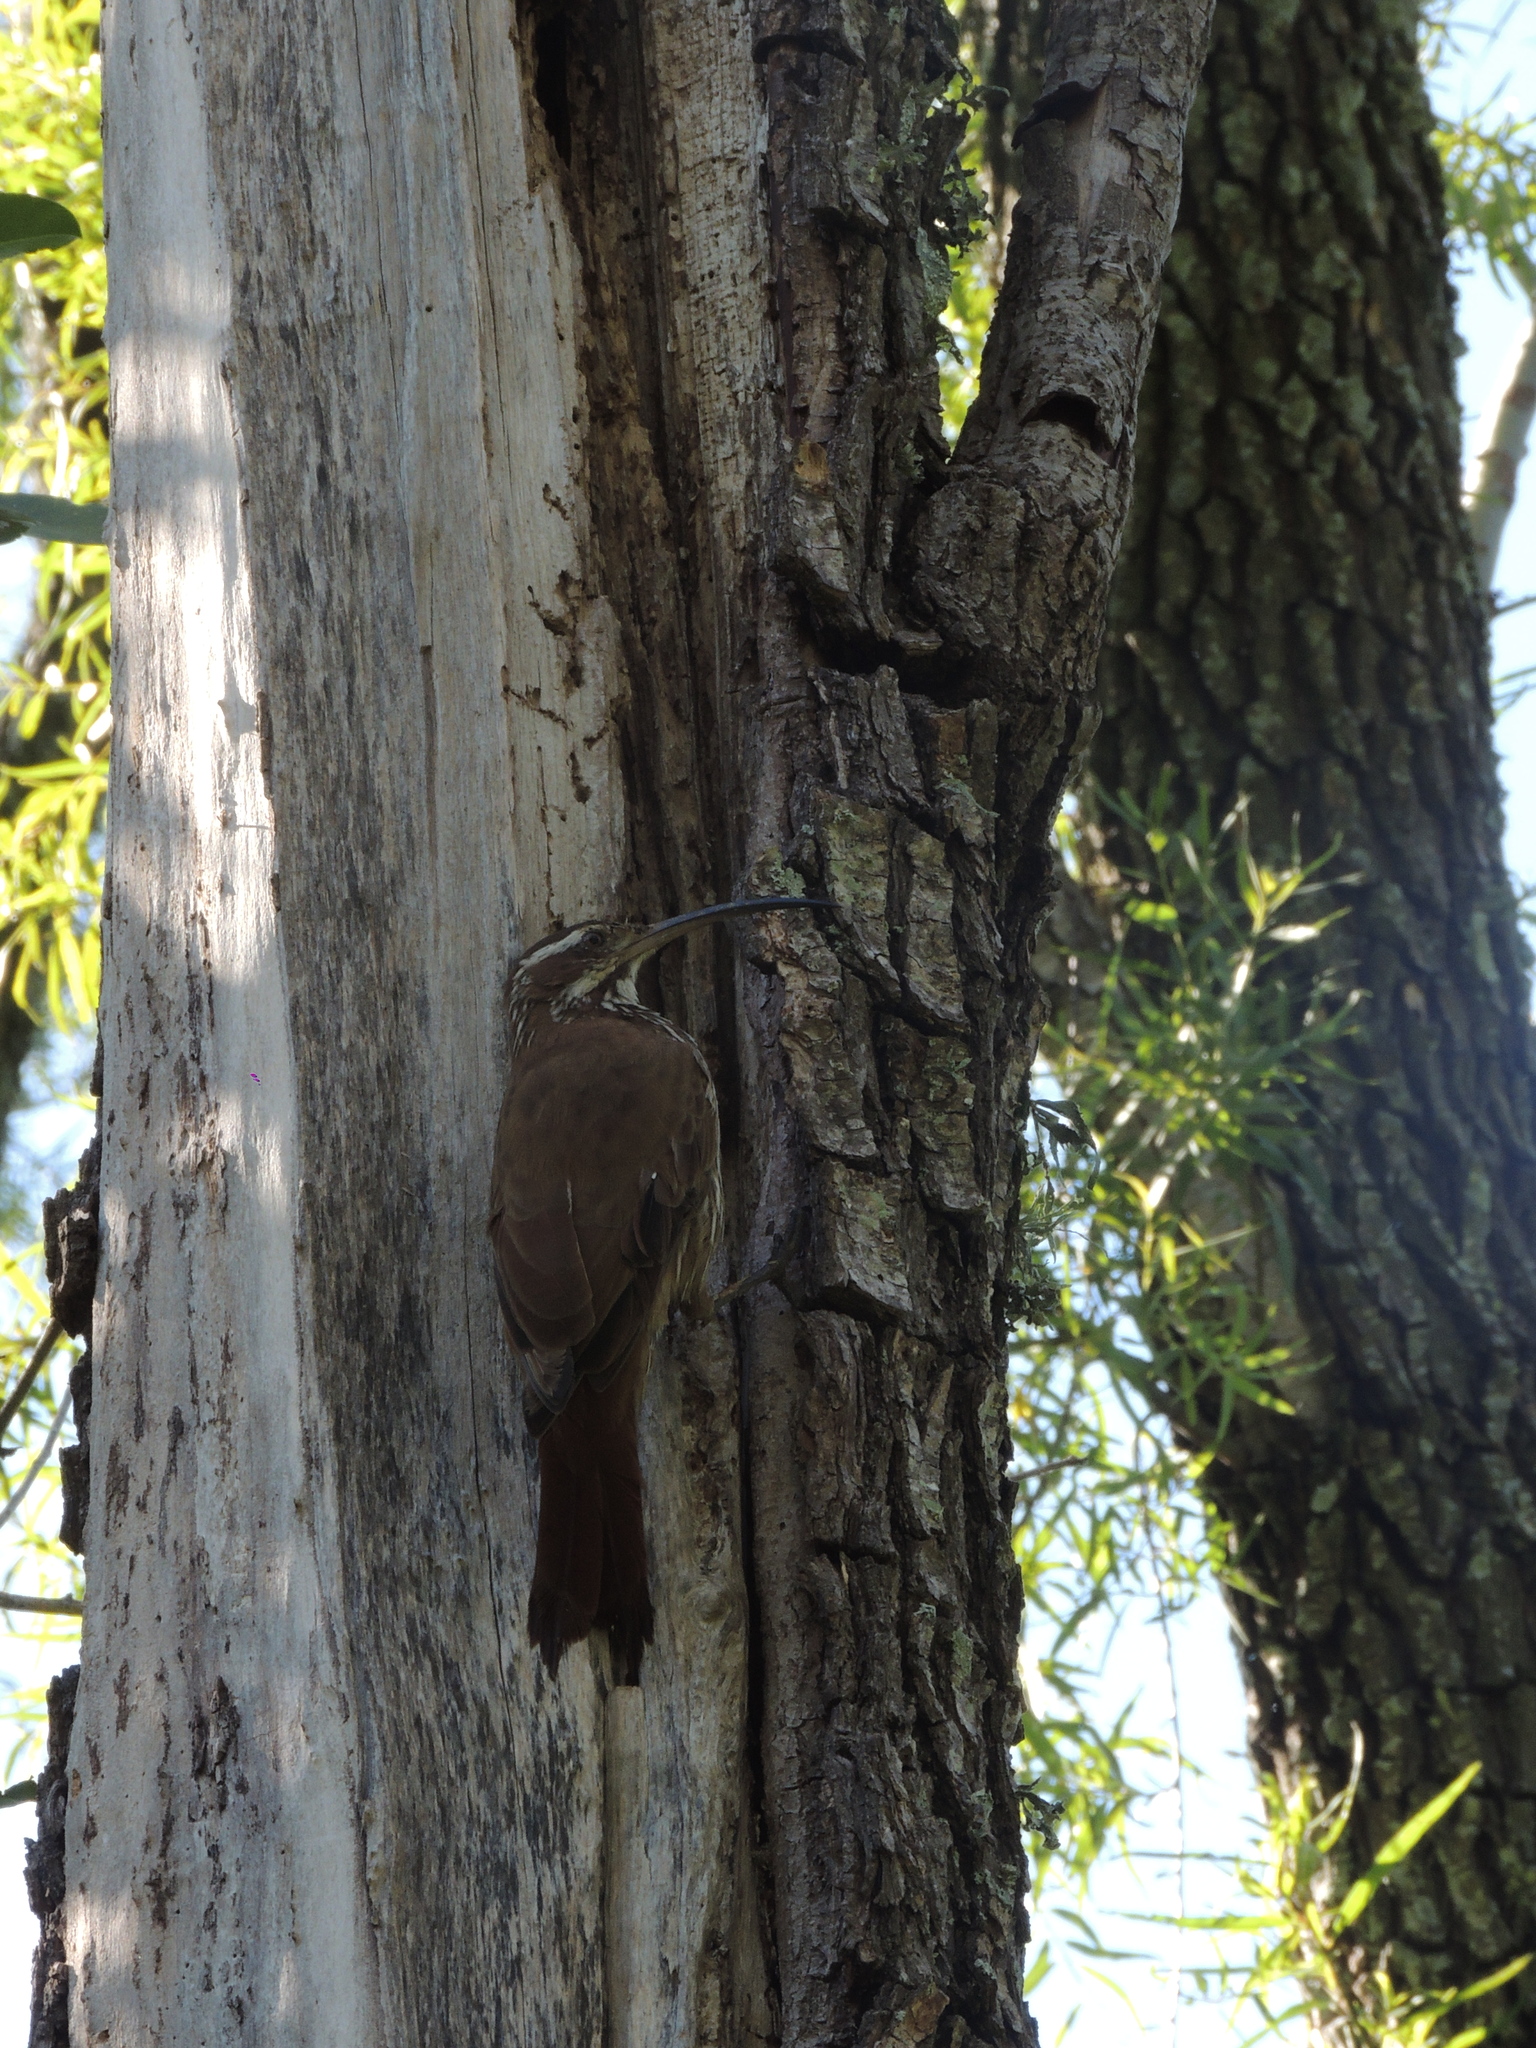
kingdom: Animalia
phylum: Chordata
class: Aves
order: Passeriformes
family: Furnariidae
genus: Drymornis
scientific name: Drymornis bridgesii
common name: Scimitar-billed woodcreeper
